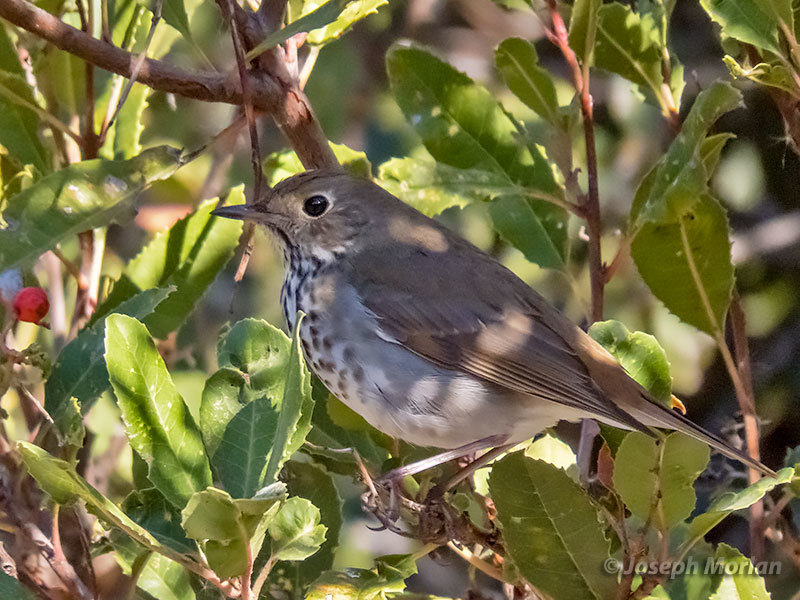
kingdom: Animalia
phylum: Chordata
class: Aves
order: Passeriformes
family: Turdidae
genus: Catharus
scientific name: Catharus guttatus
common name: Hermit thrush
